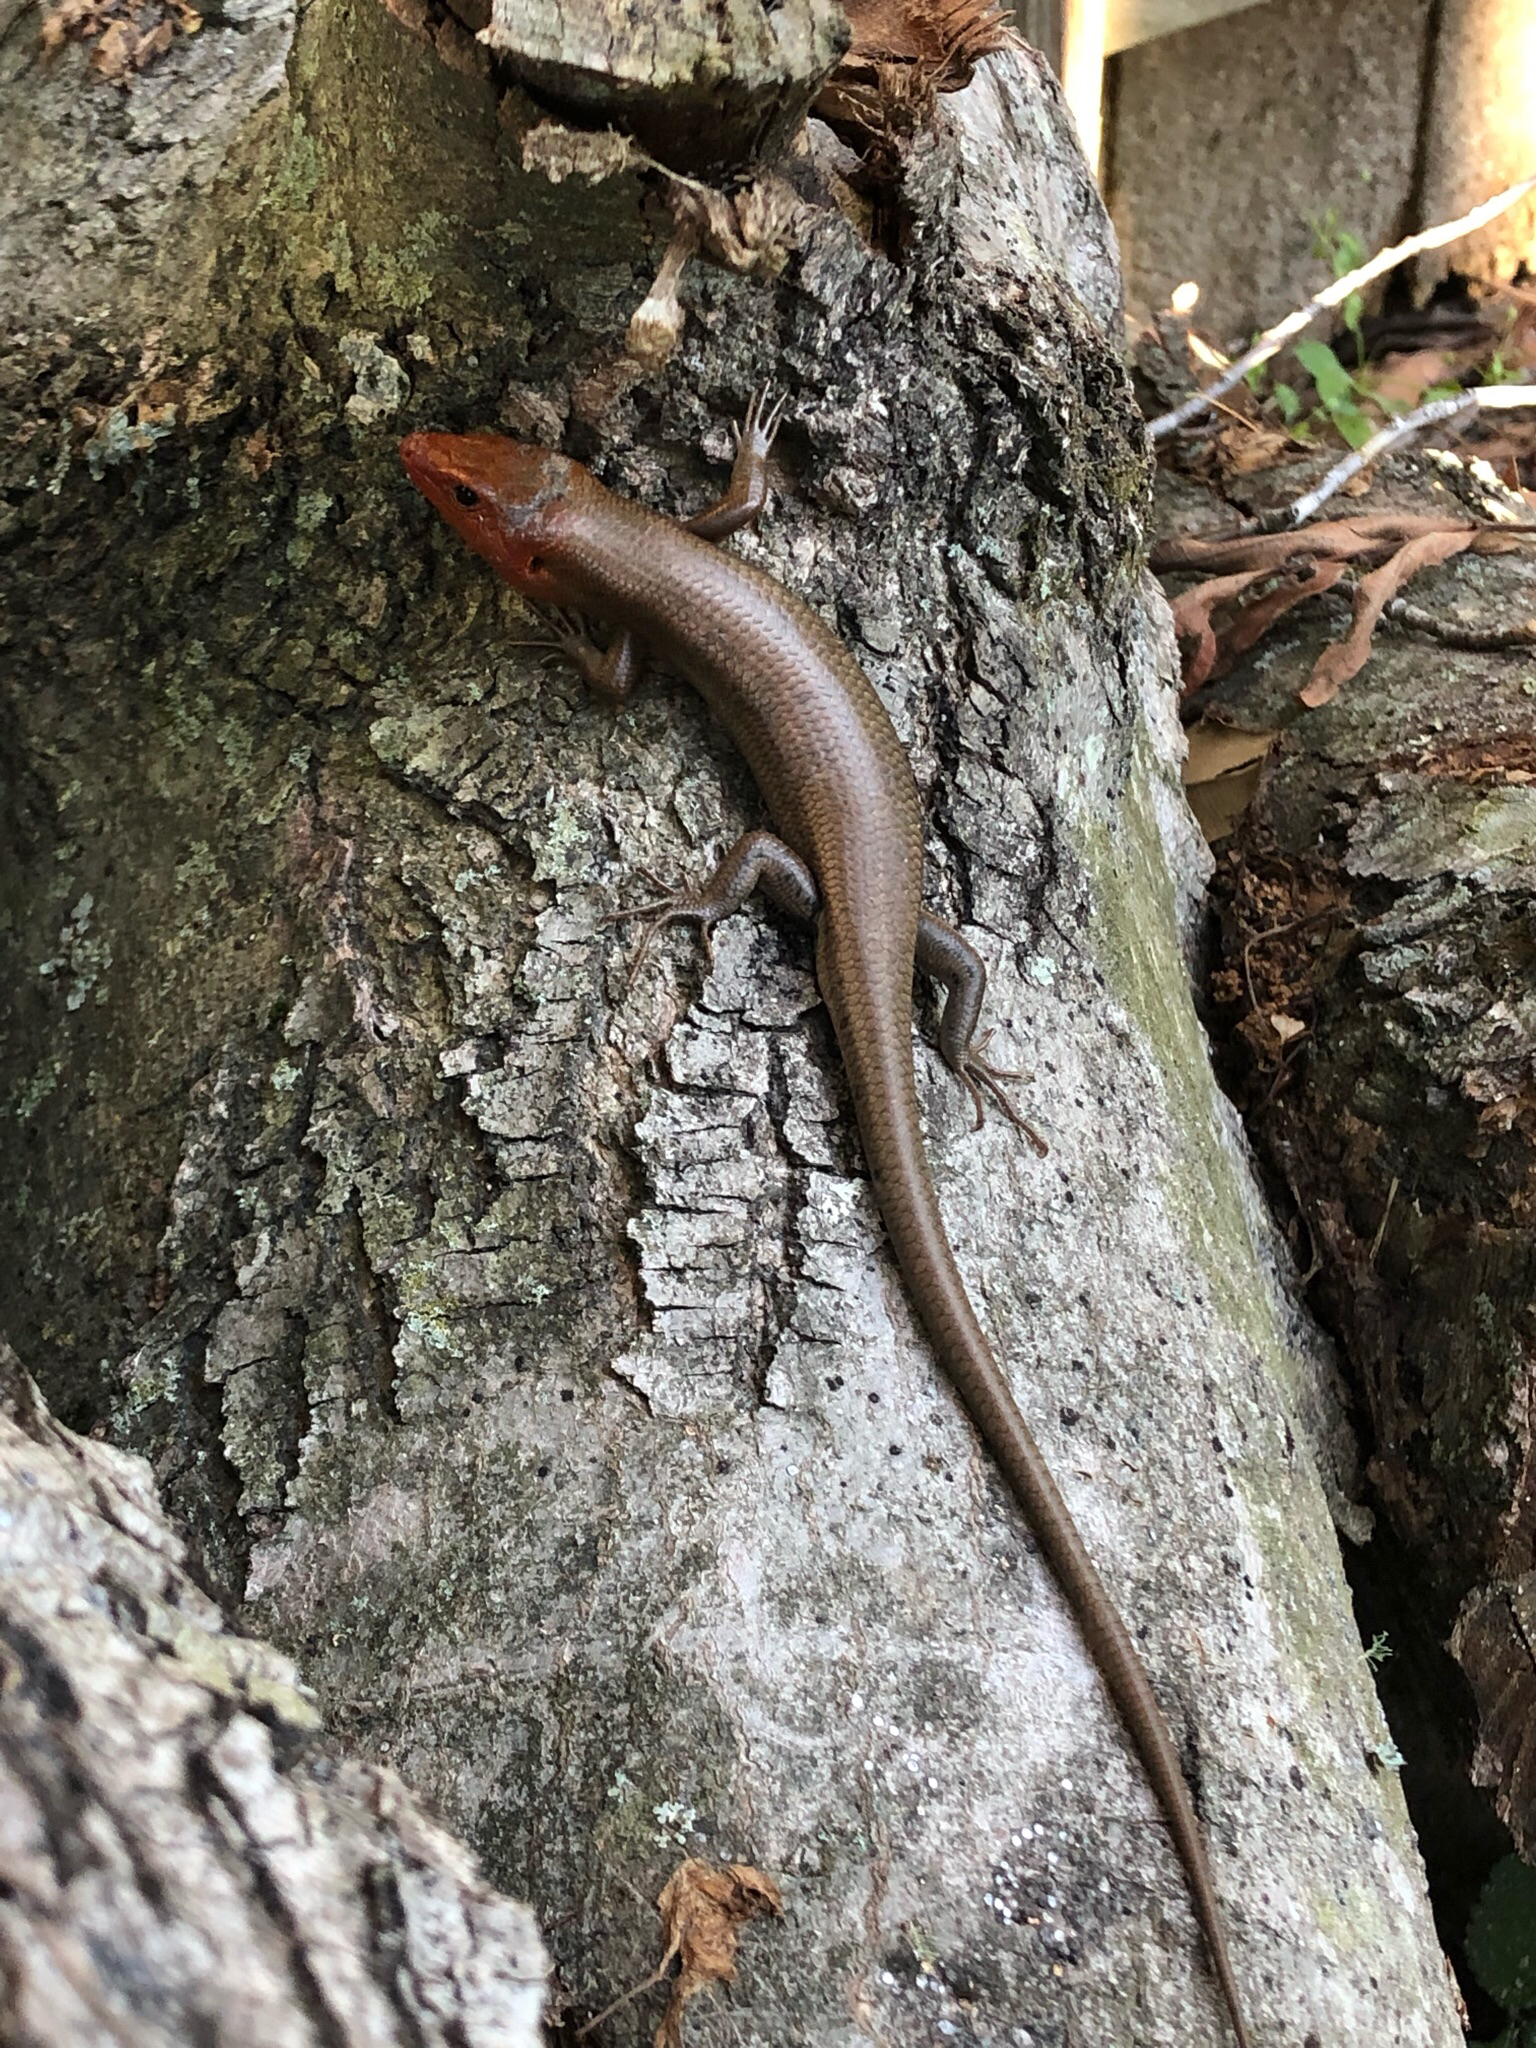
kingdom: Animalia
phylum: Chordata
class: Squamata
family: Scincidae
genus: Plestiodon
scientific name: Plestiodon fasciatus
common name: Five-lined skink
